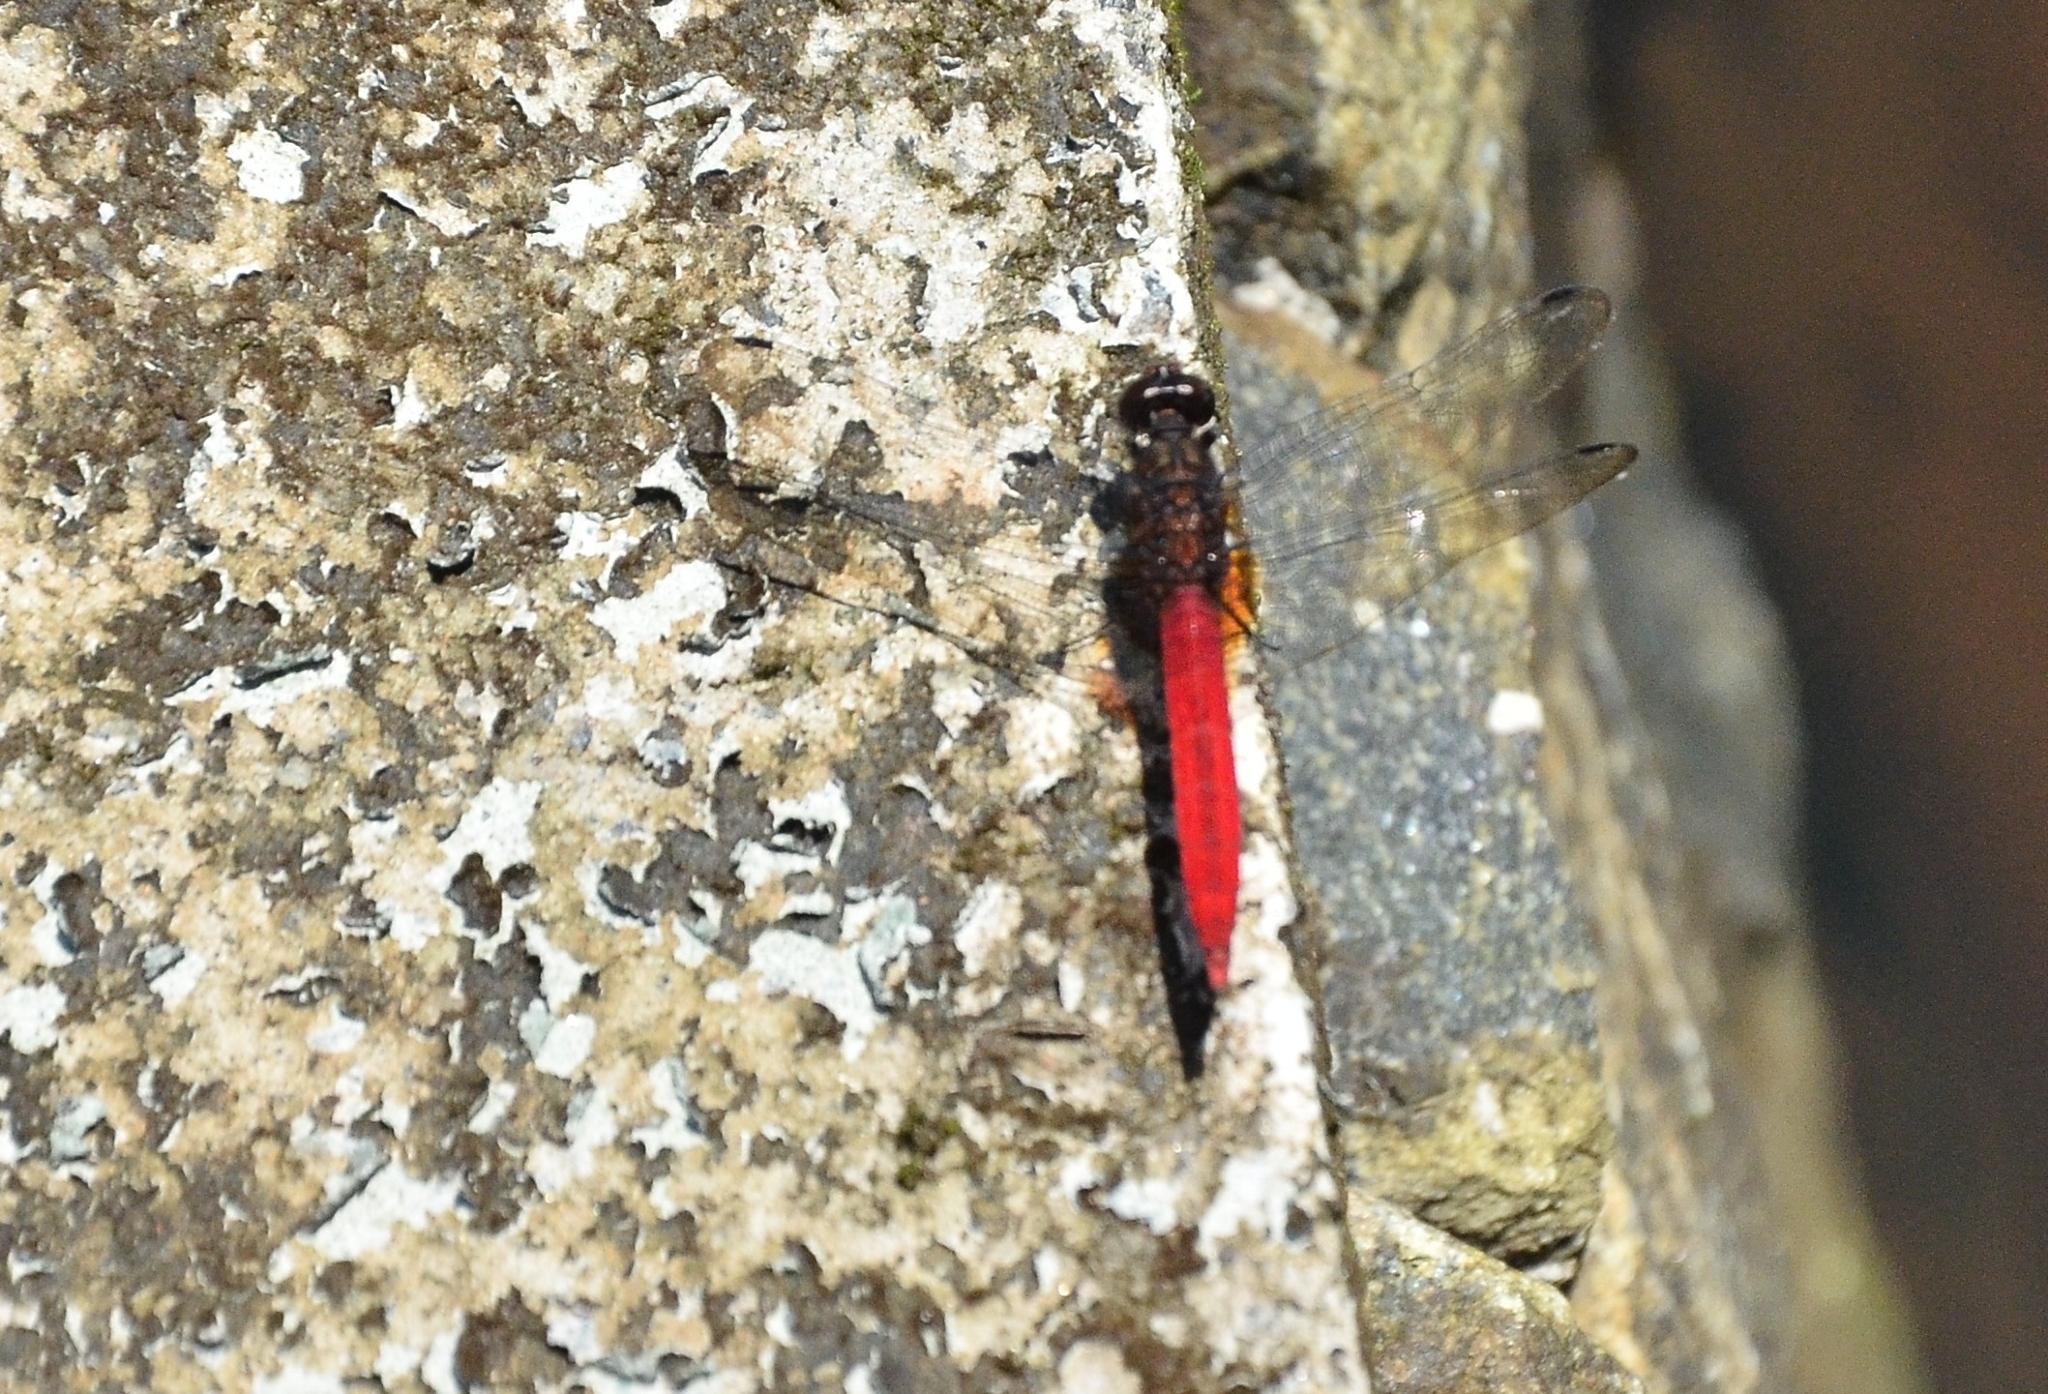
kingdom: Animalia
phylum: Arthropoda
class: Insecta
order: Odonata
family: Libellulidae
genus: Orthetrum
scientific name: Orthetrum chrysis
